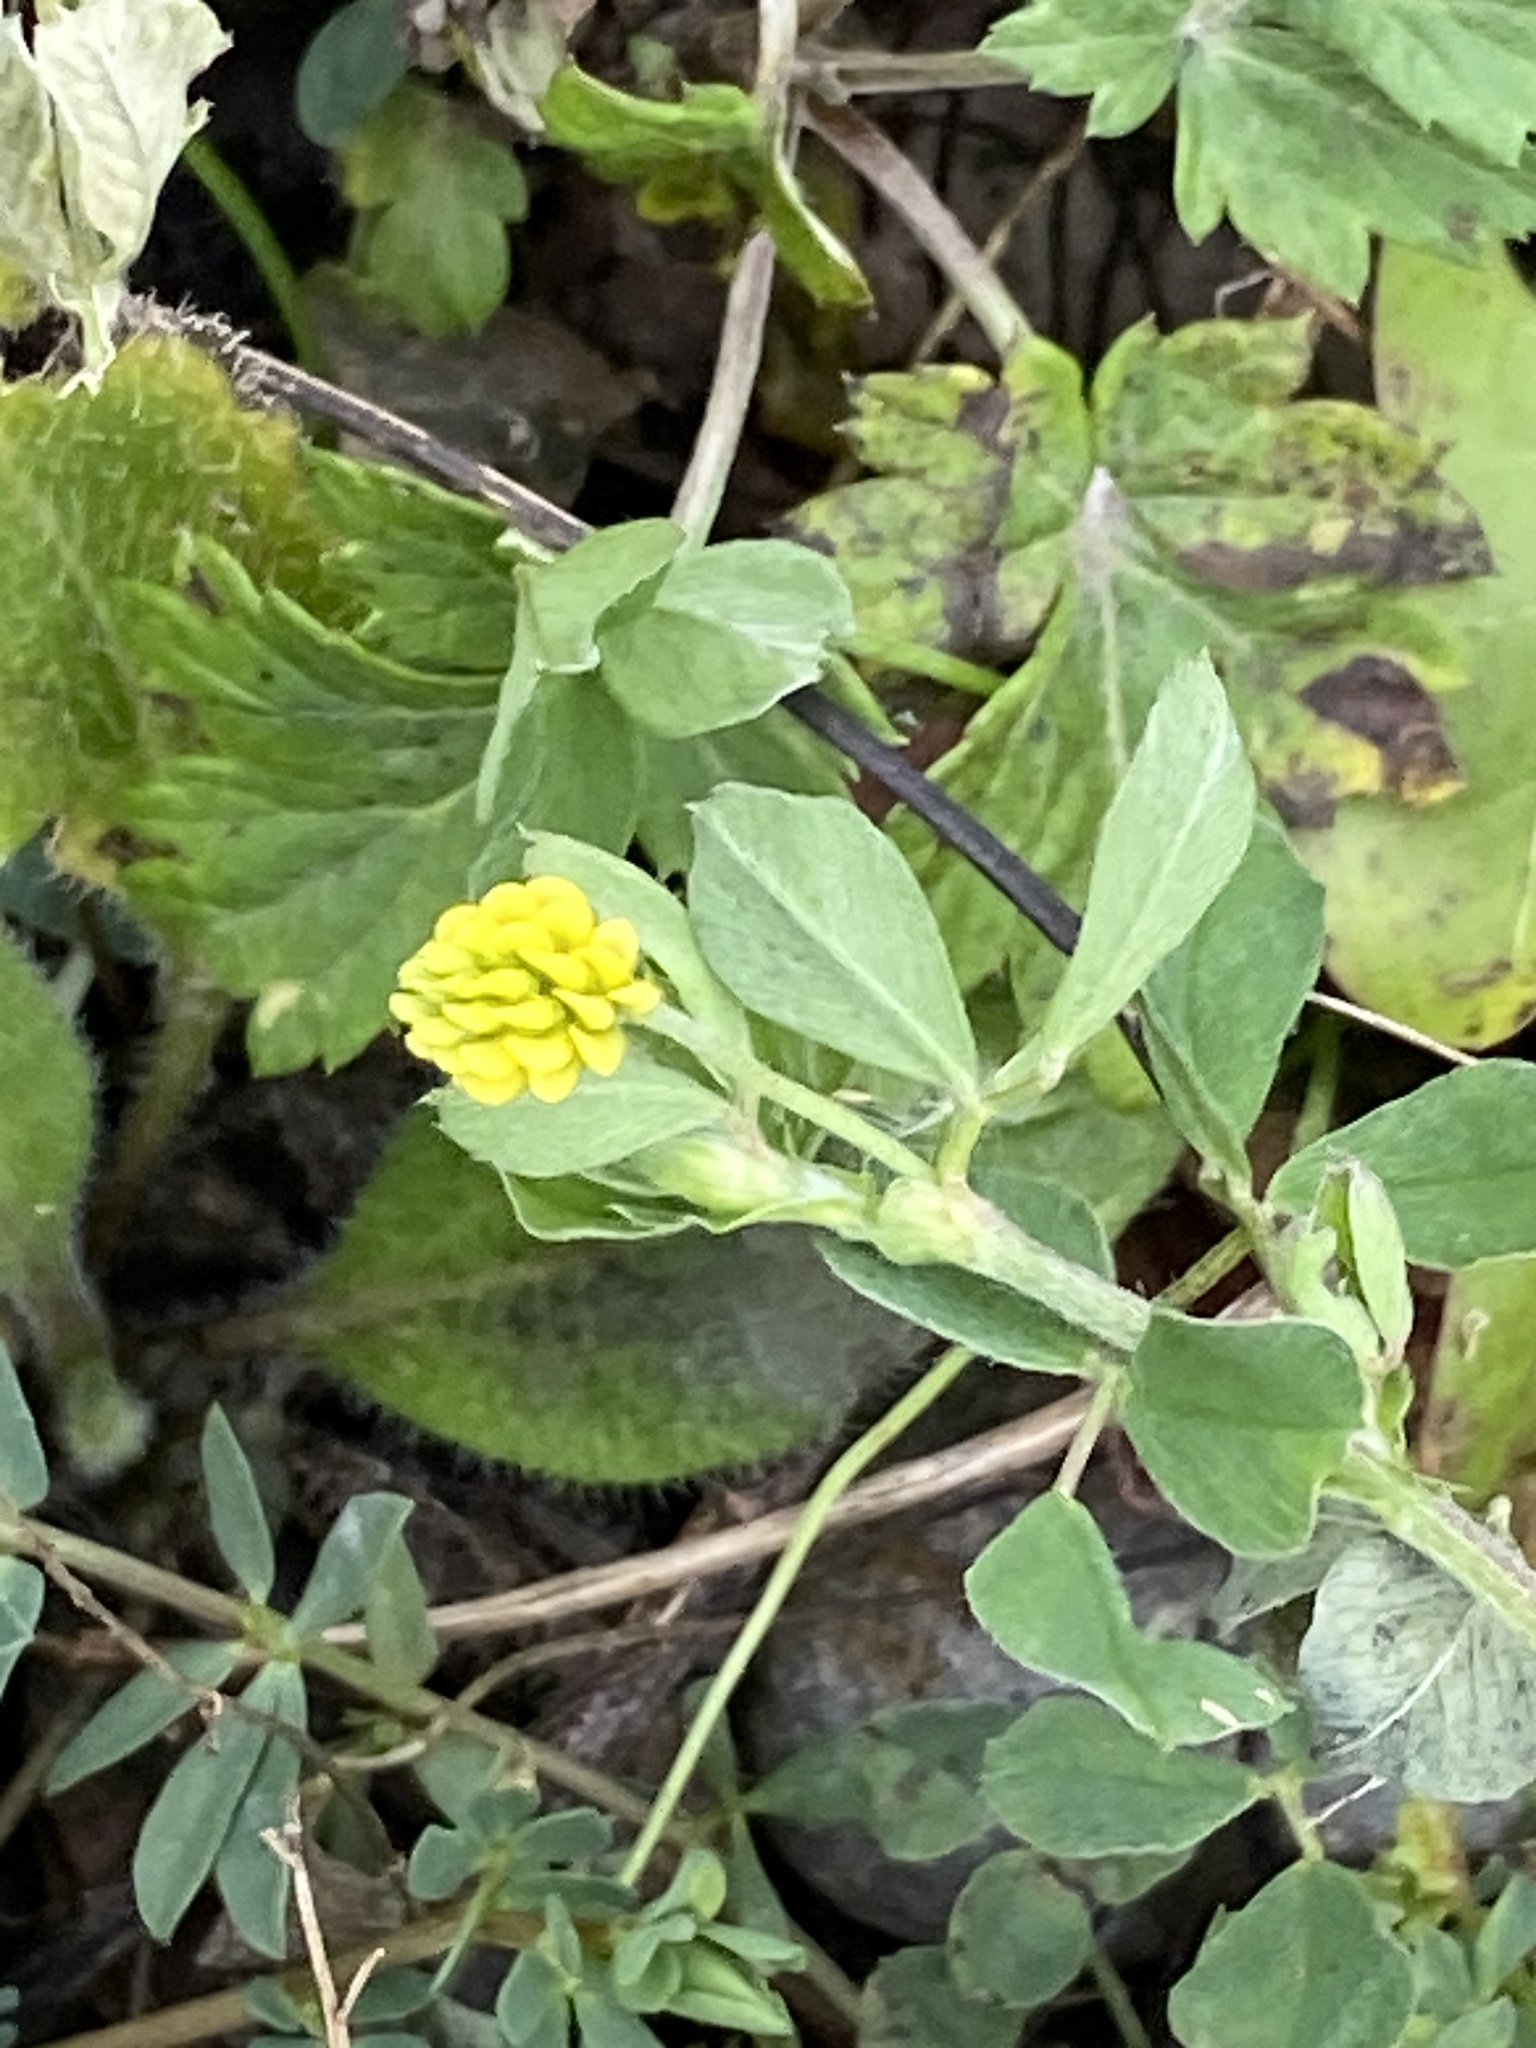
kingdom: Plantae
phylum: Tracheophyta
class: Magnoliopsida
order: Fabales
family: Fabaceae
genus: Medicago
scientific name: Medicago lupulina
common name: Black medick
